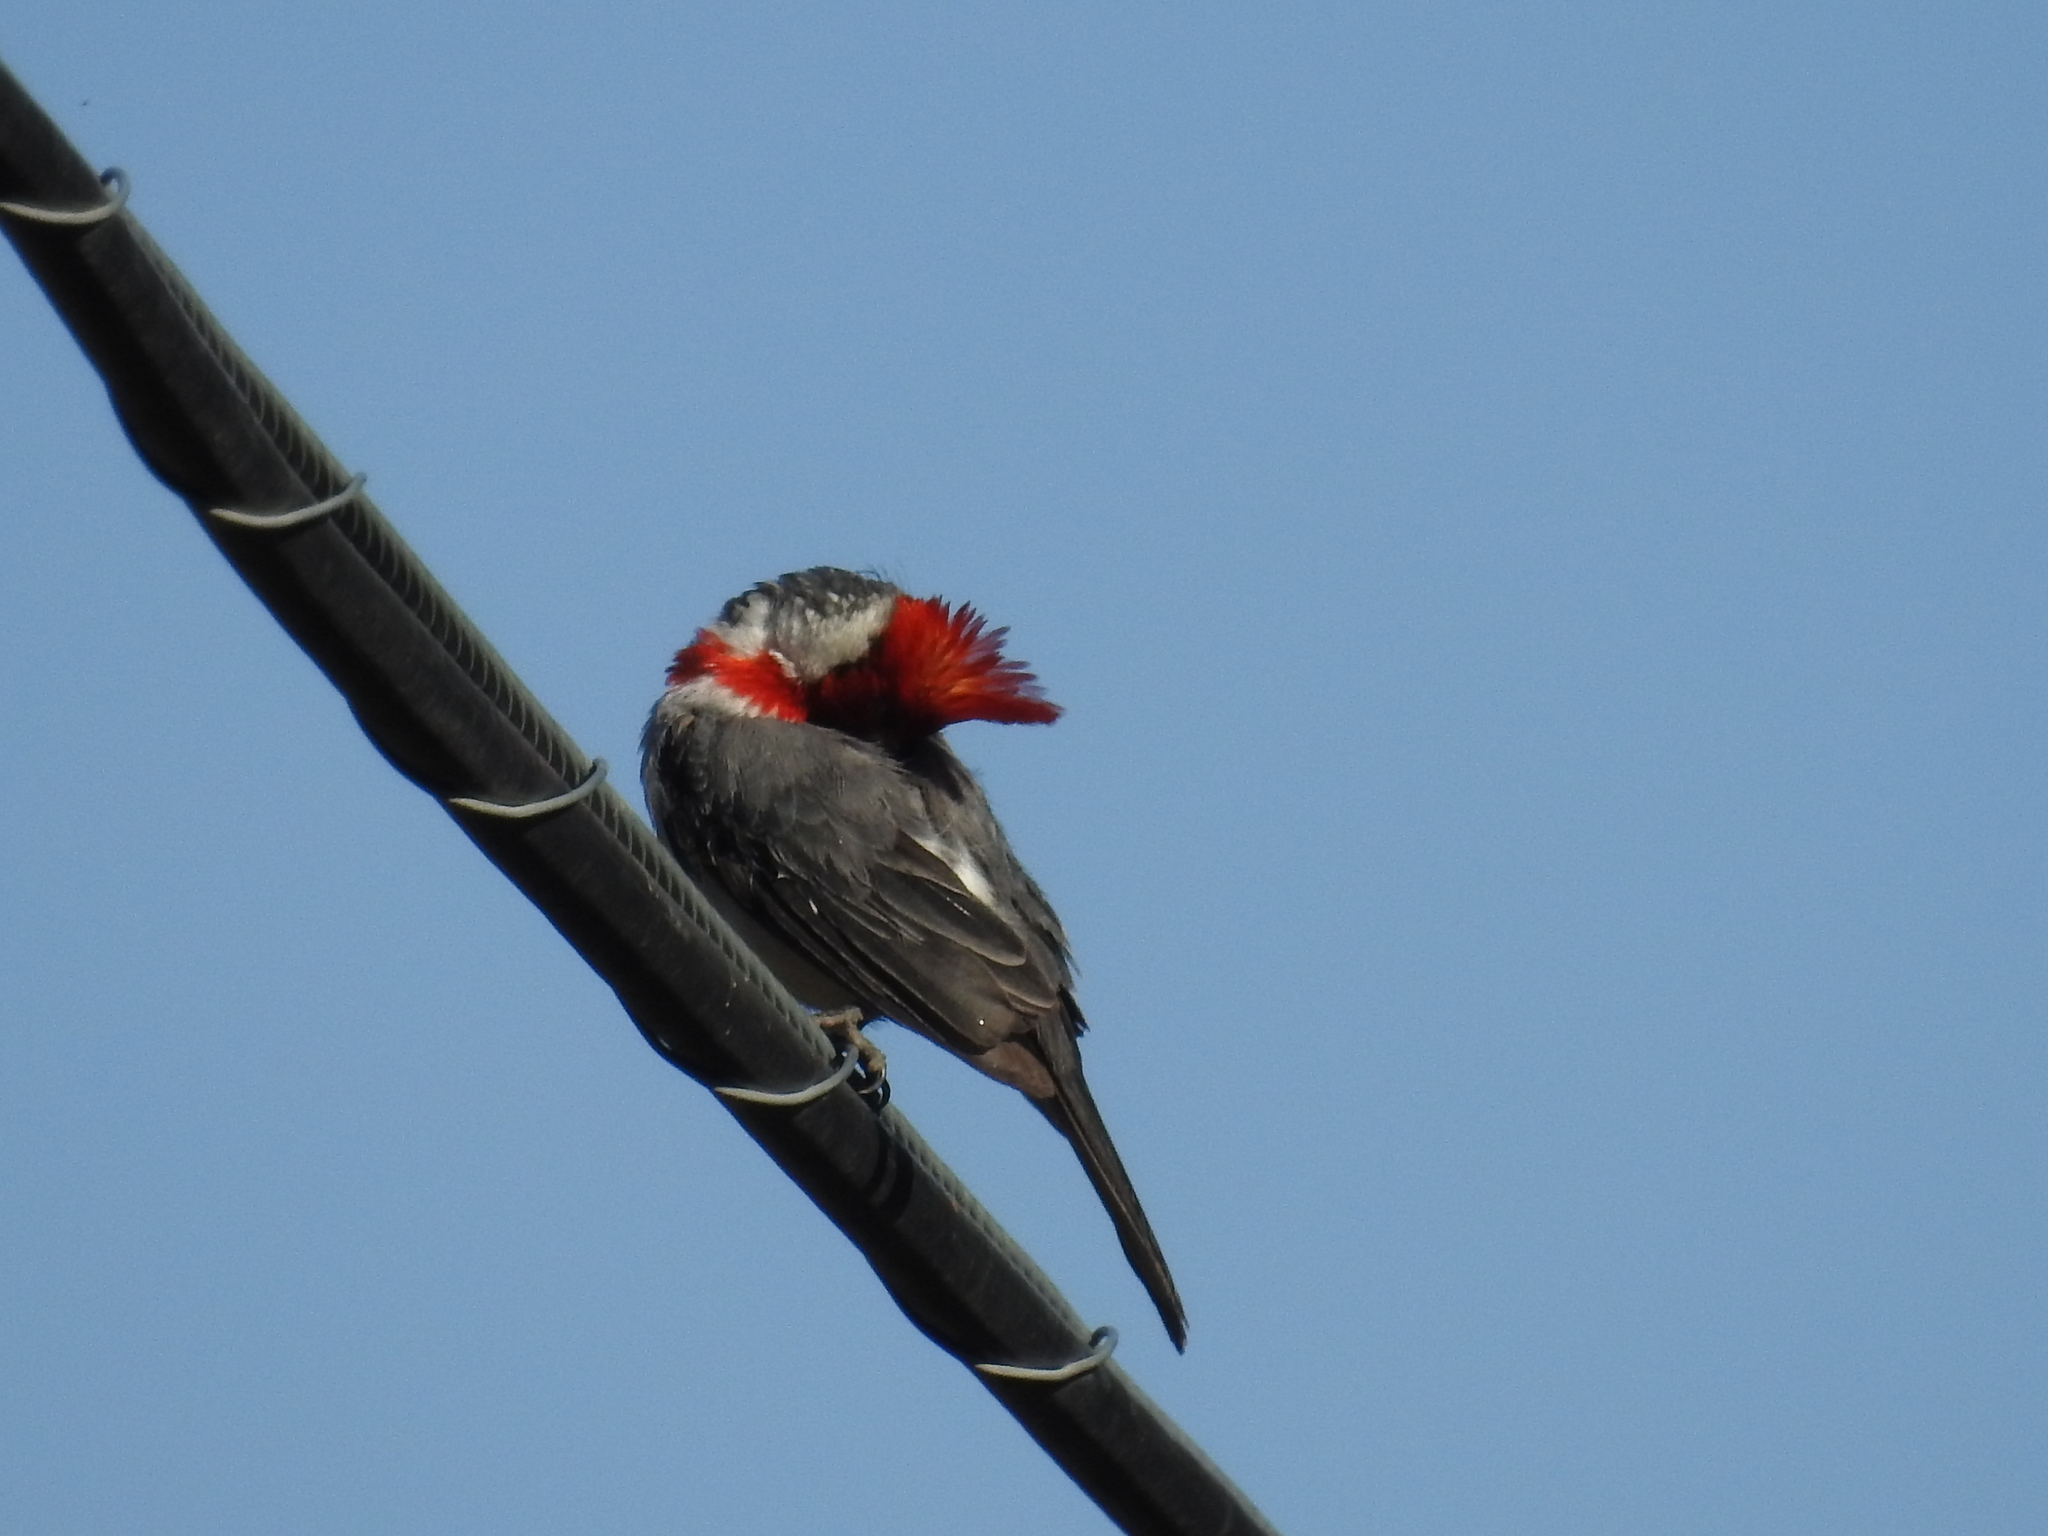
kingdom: Animalia
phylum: Chordata
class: Aves
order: Passeriformes
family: Thraupidae
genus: Paroaria
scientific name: Paroaria coronata
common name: Red-crested cardinal
